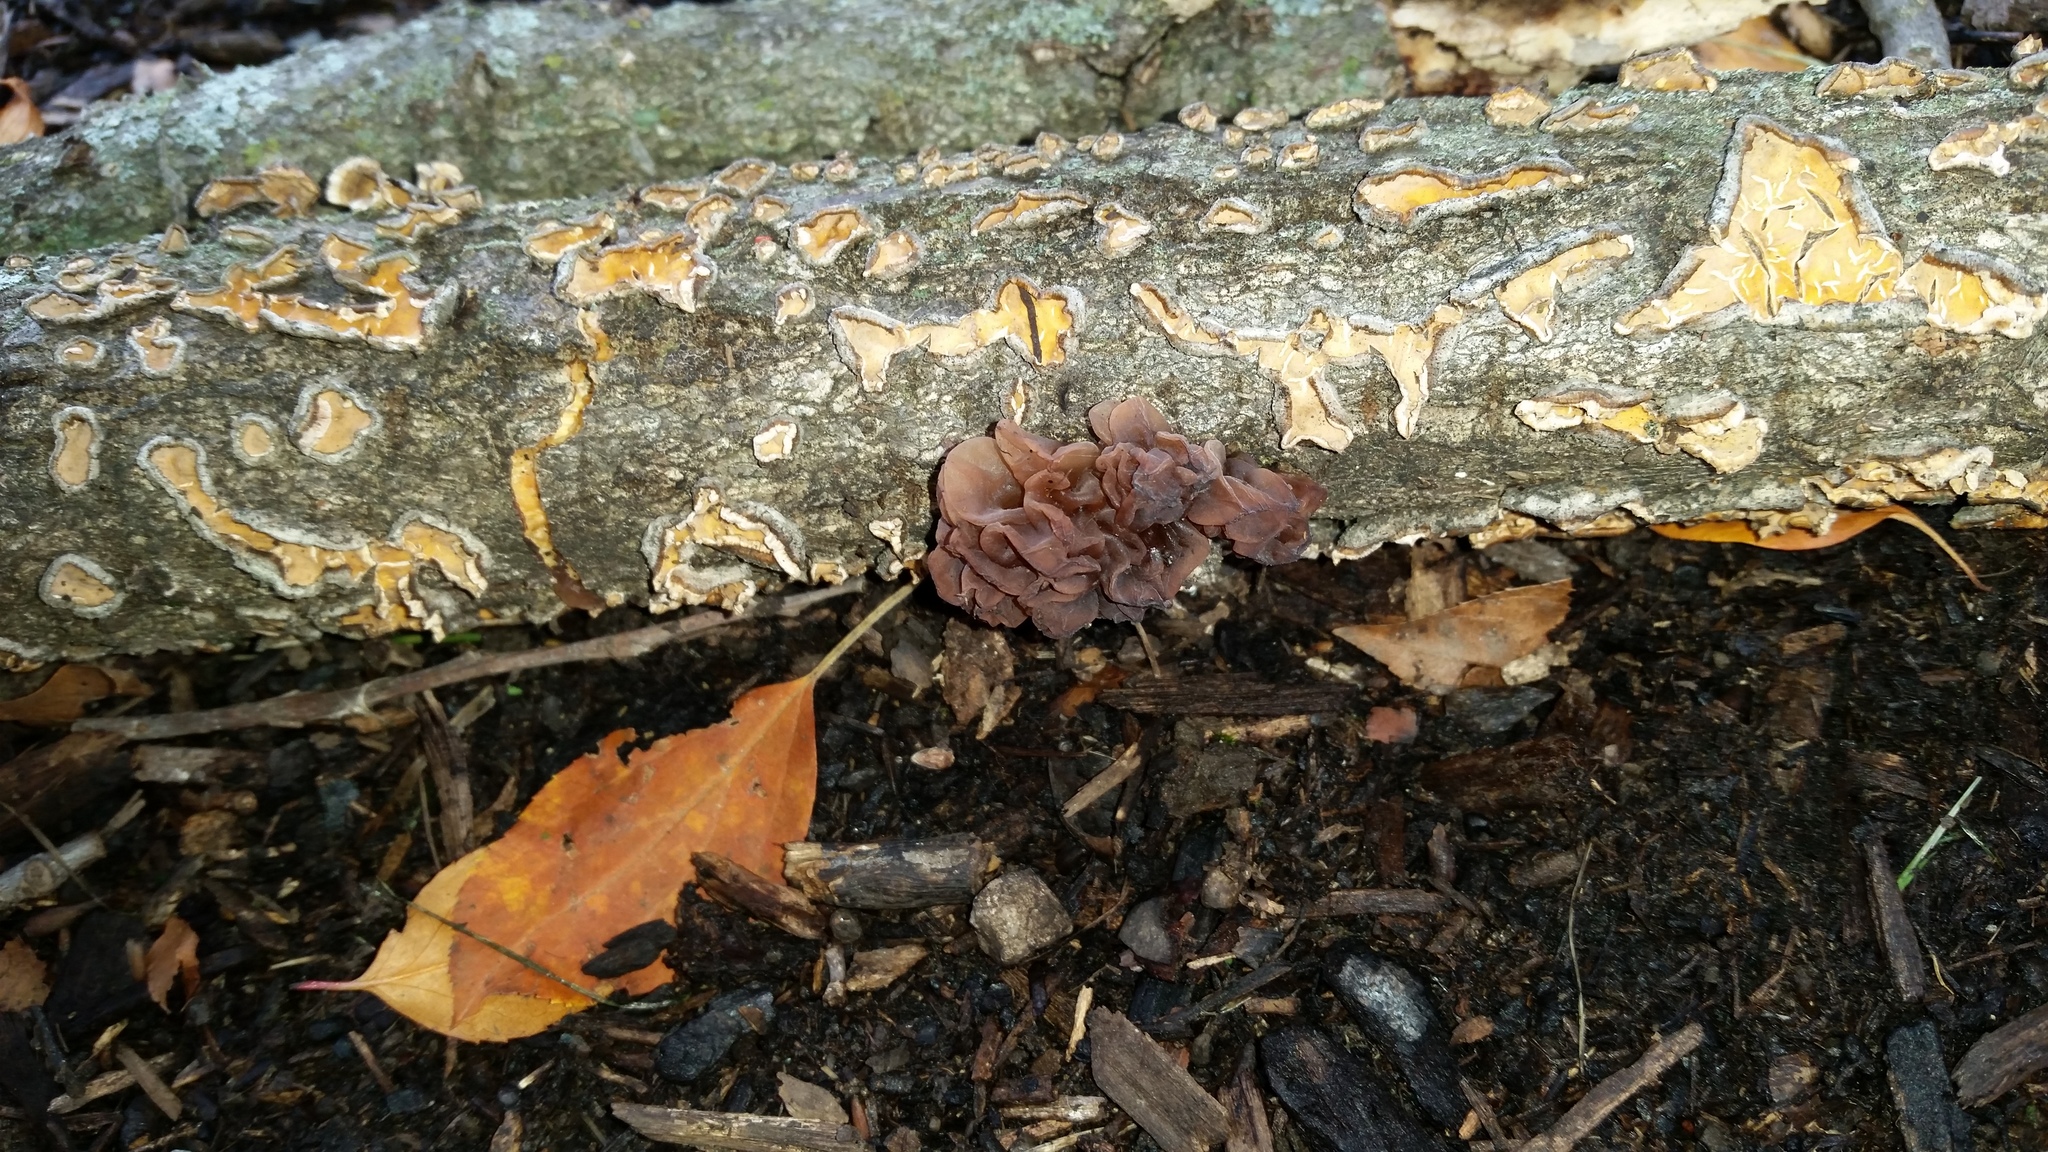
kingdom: Fungi
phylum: Basidiomycota
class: Tremellomycetes
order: Tremellales
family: Tremellaceae
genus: Phaeotremella
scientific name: Phaeotremella frondosa
